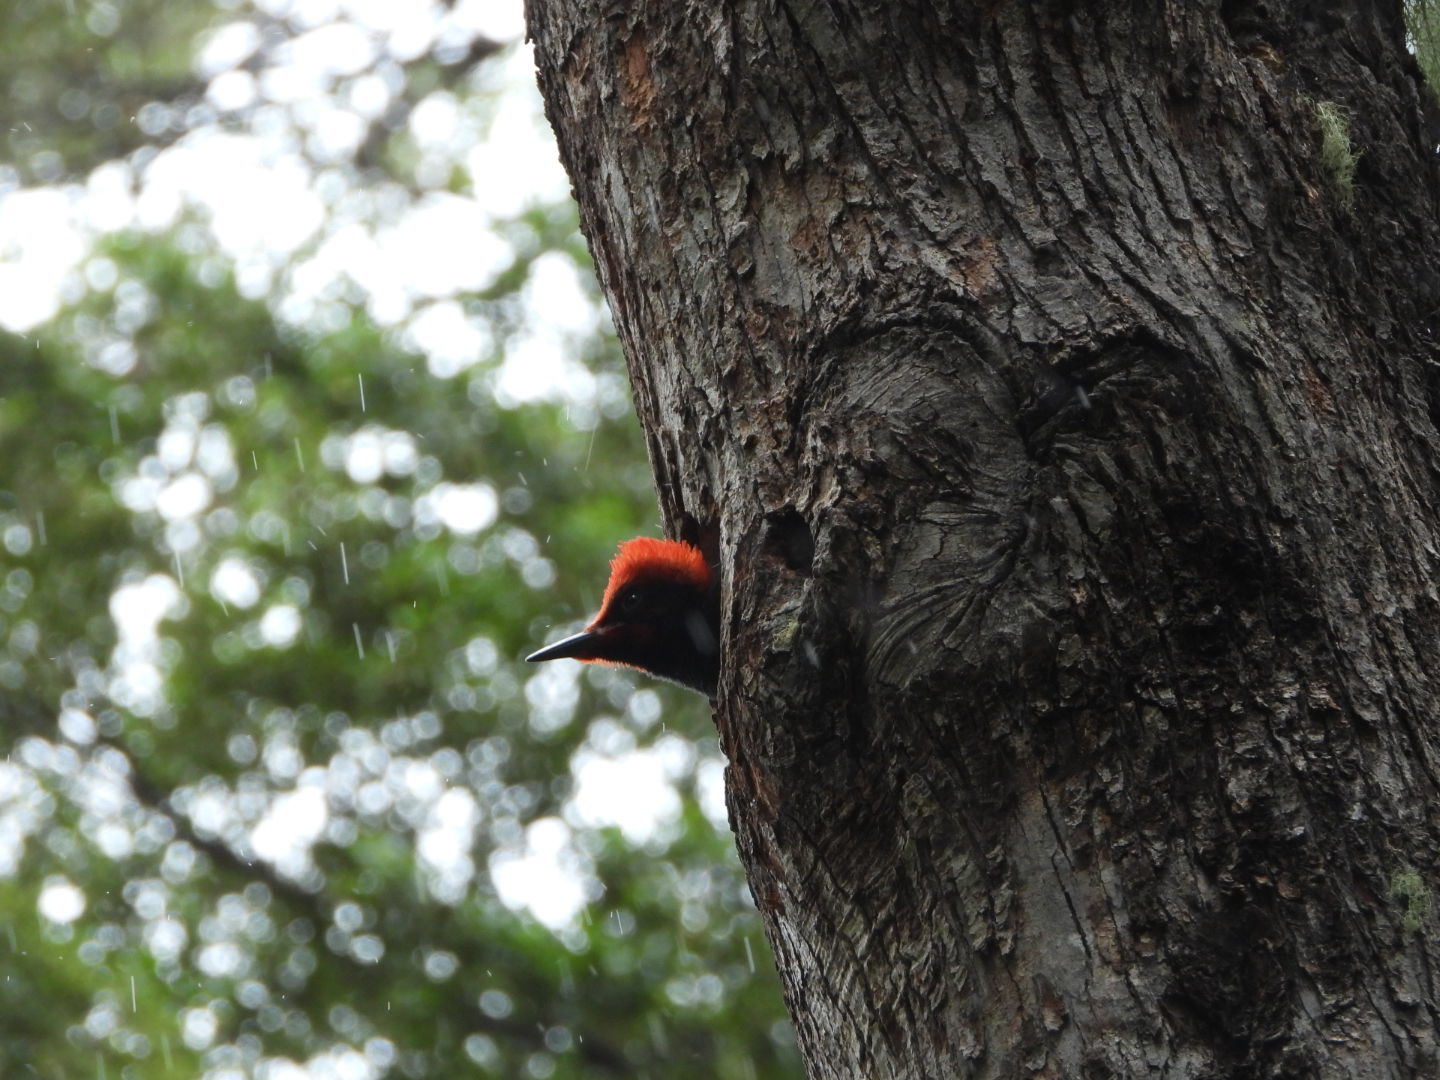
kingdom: Animalia
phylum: Chordata
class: Aves
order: Piciformes
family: Picidae
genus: Campephilus
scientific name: Campephilus magellanicus
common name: Magellanic woodpecker
